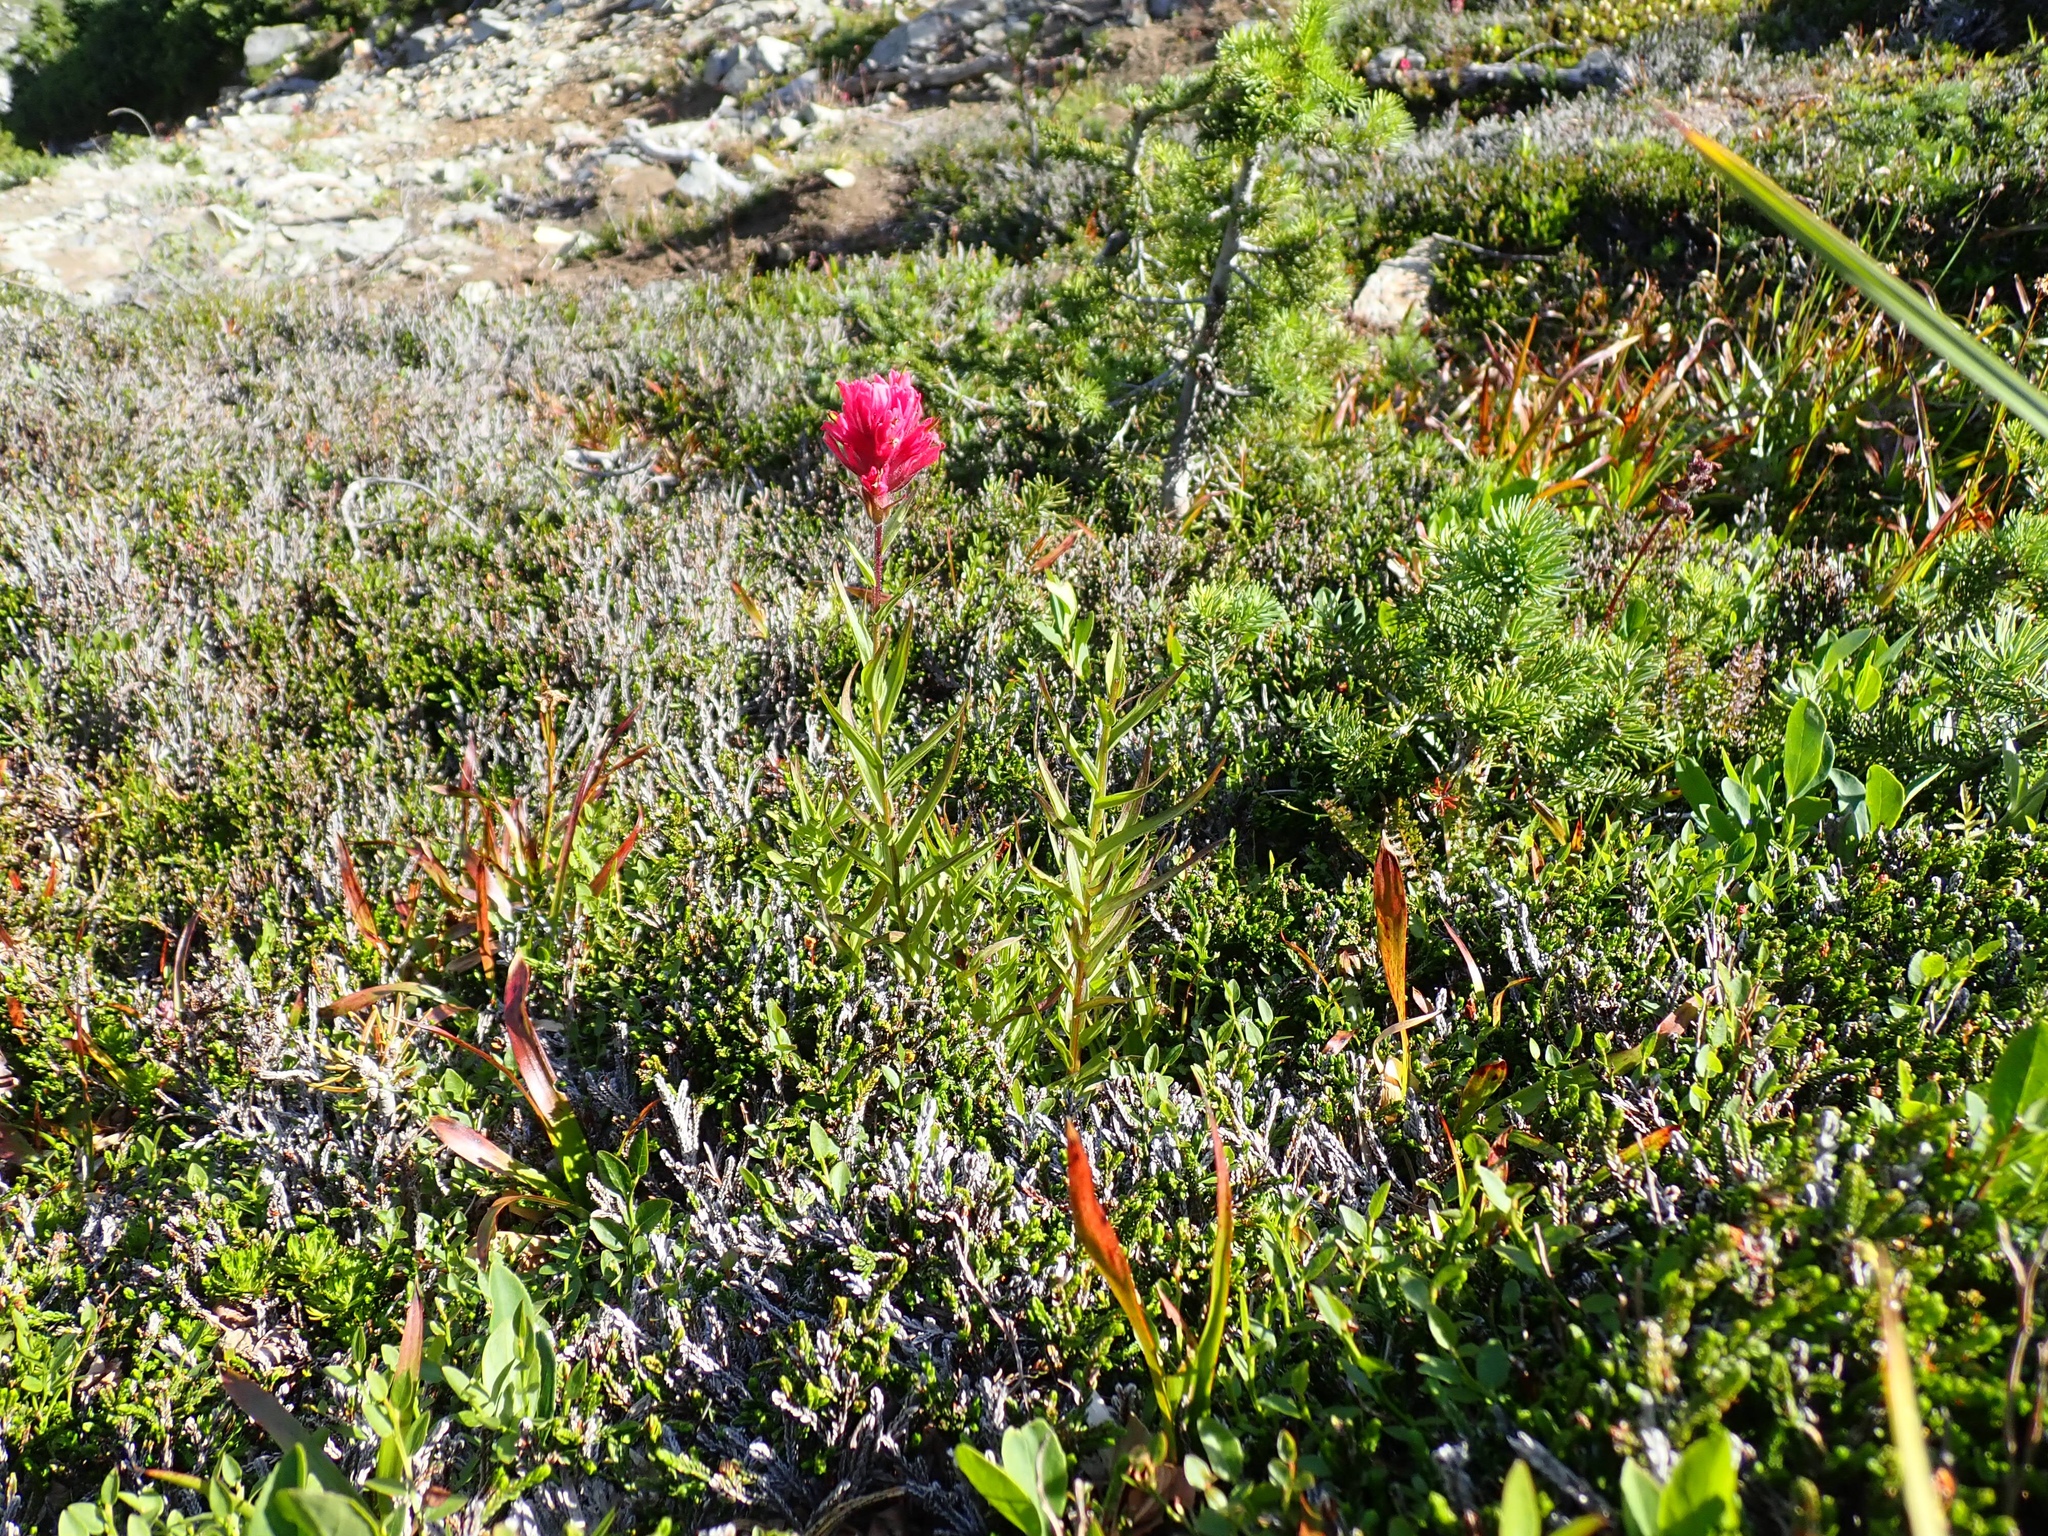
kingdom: Plantae
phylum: Tracheophyta
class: Magnoliopsida
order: Lamiales
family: Orobanchaceae
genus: Castilleja
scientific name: Castilleja parviflora
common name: Mountain paintbrush
